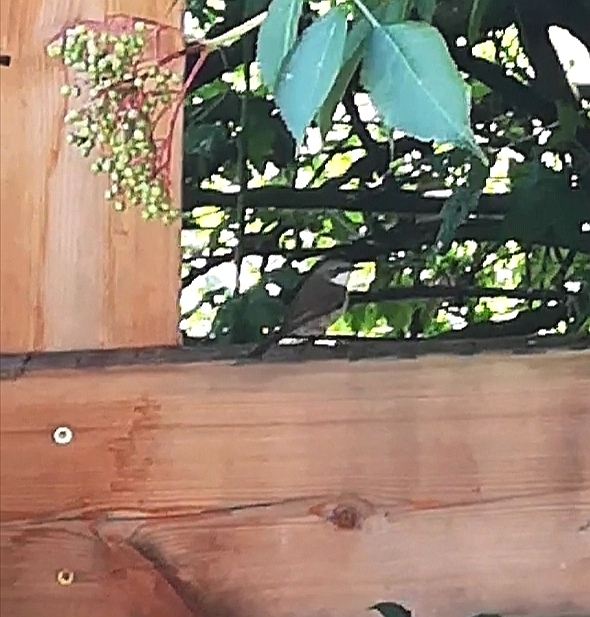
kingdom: Animalia
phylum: Chordata
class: Aves
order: Passeriformes
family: Sylviidae
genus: Sylvia
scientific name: Sylvia curruca
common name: Lesser whitethroat
